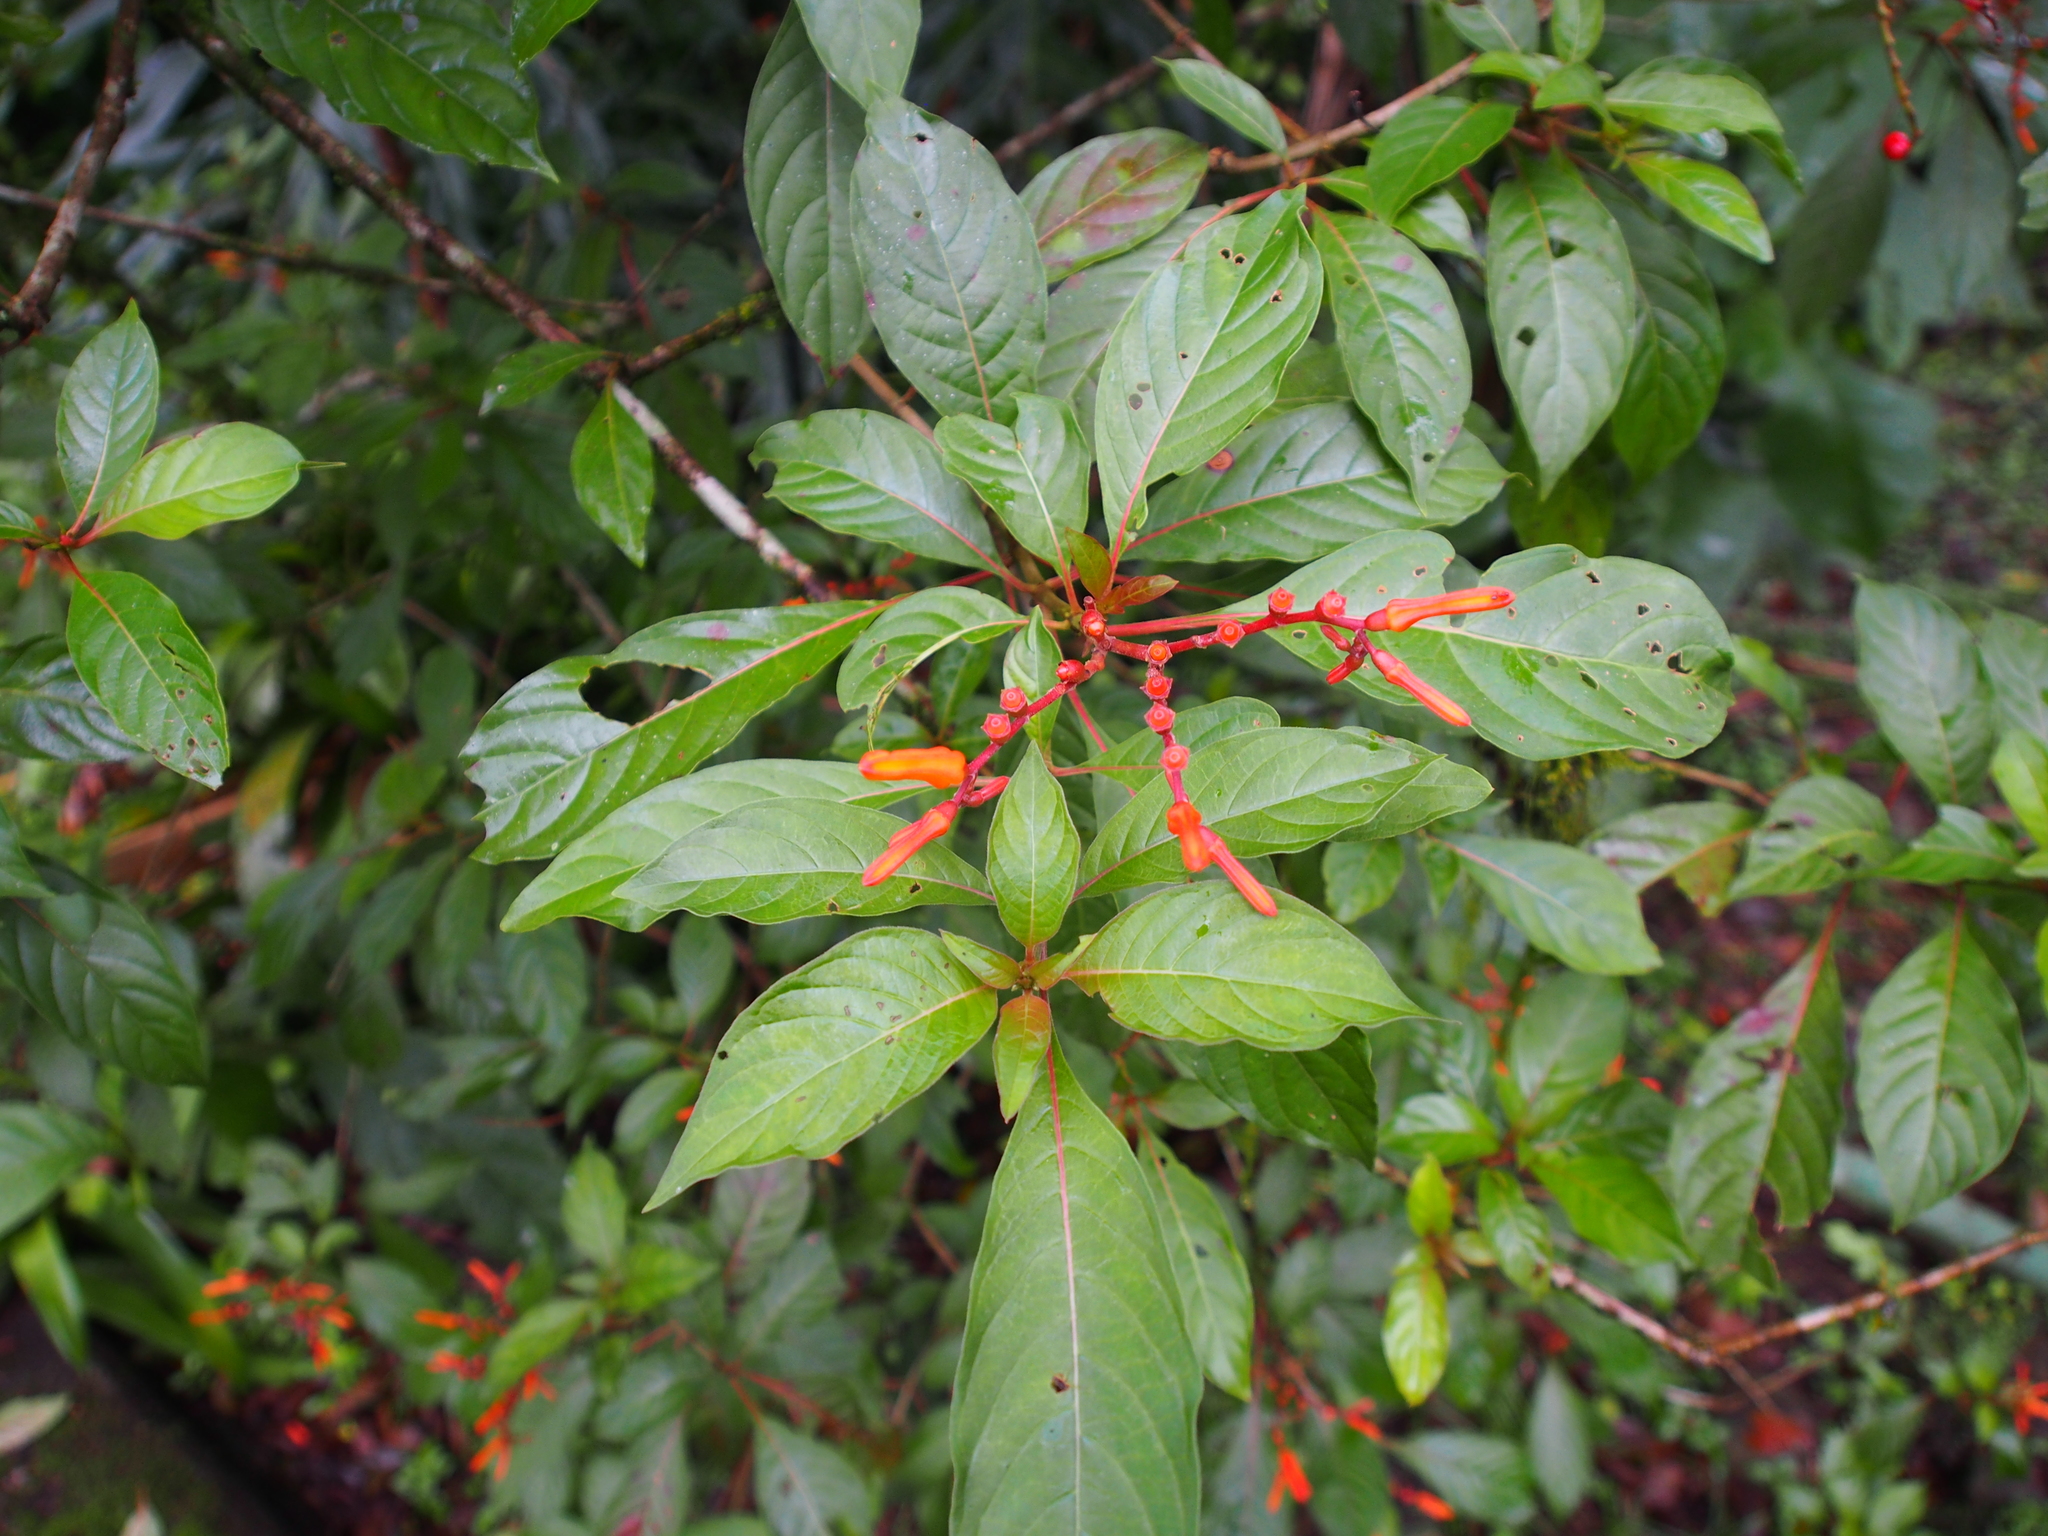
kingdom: Plantae
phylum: Tracheophyta
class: Magnoliopsida
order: Gentianales
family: Rubiaceae
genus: Hamelia
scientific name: Hamelia patens
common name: Redhead
